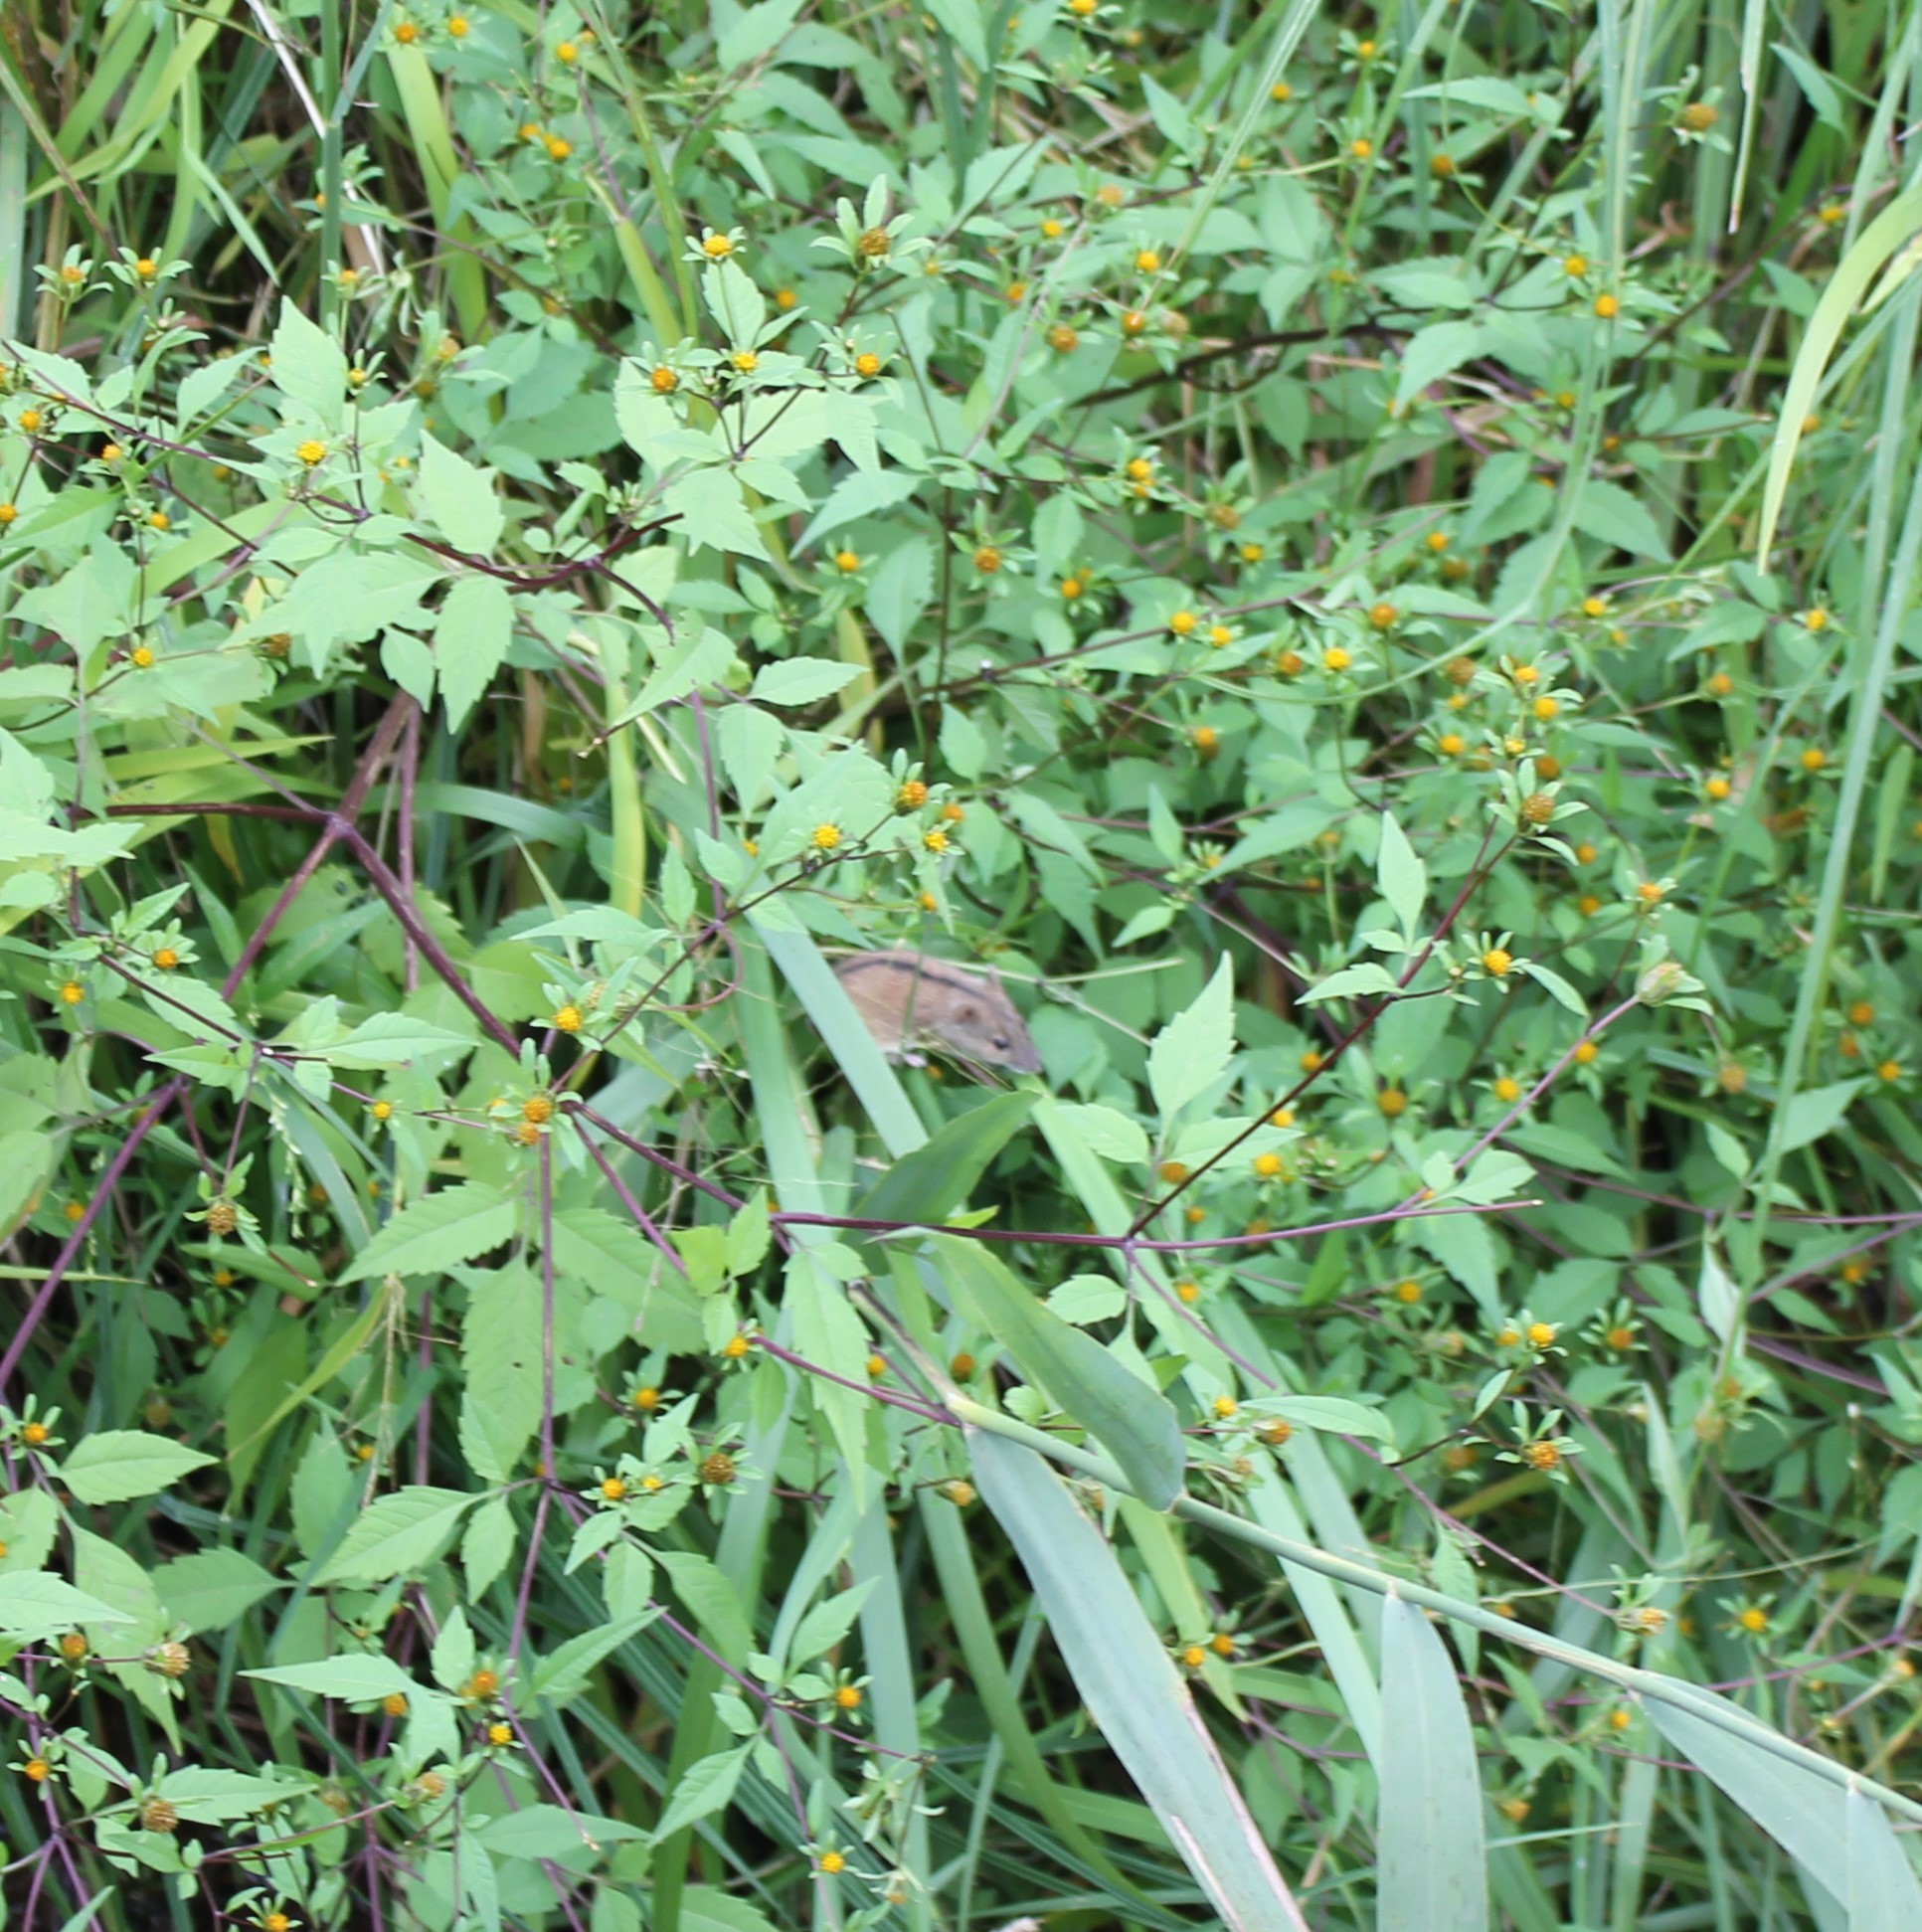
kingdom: Animalia
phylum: Chordata
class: Mammalia
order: Rodentia
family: Muridae
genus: Apodemus
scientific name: Apodemus agrarius
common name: Striped field mouse
